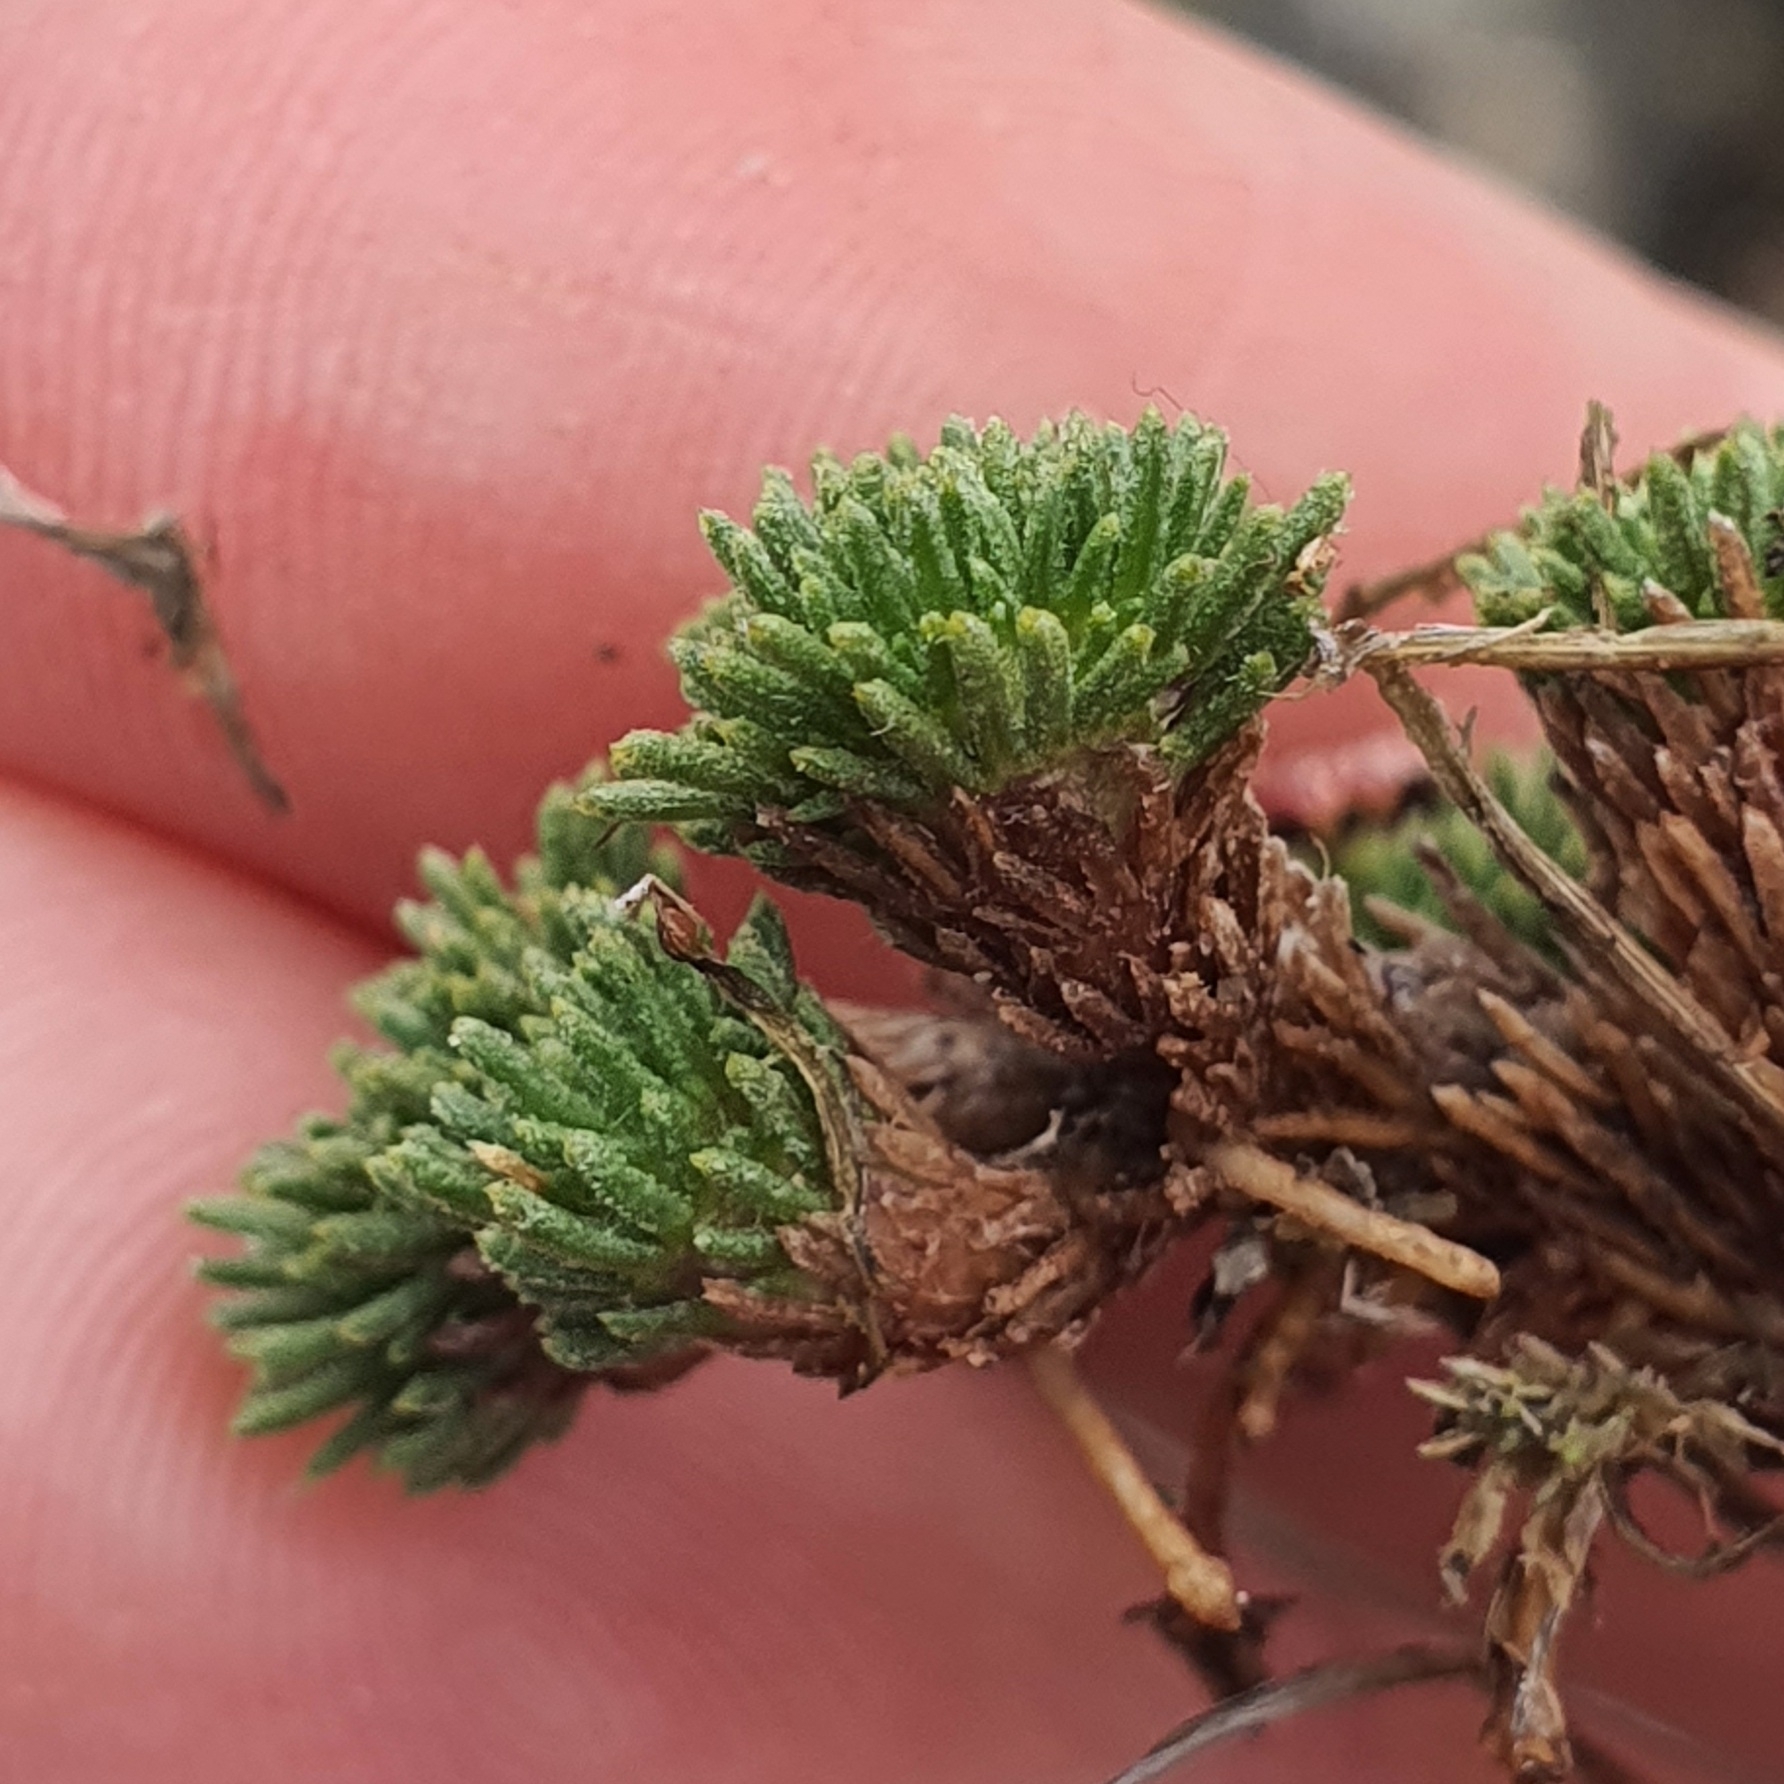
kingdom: Plantae
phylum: Tracheophyta
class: Magnoliopsida
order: Asterales
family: Asteraceae
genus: Leptinella
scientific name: Leptinella goyenii
